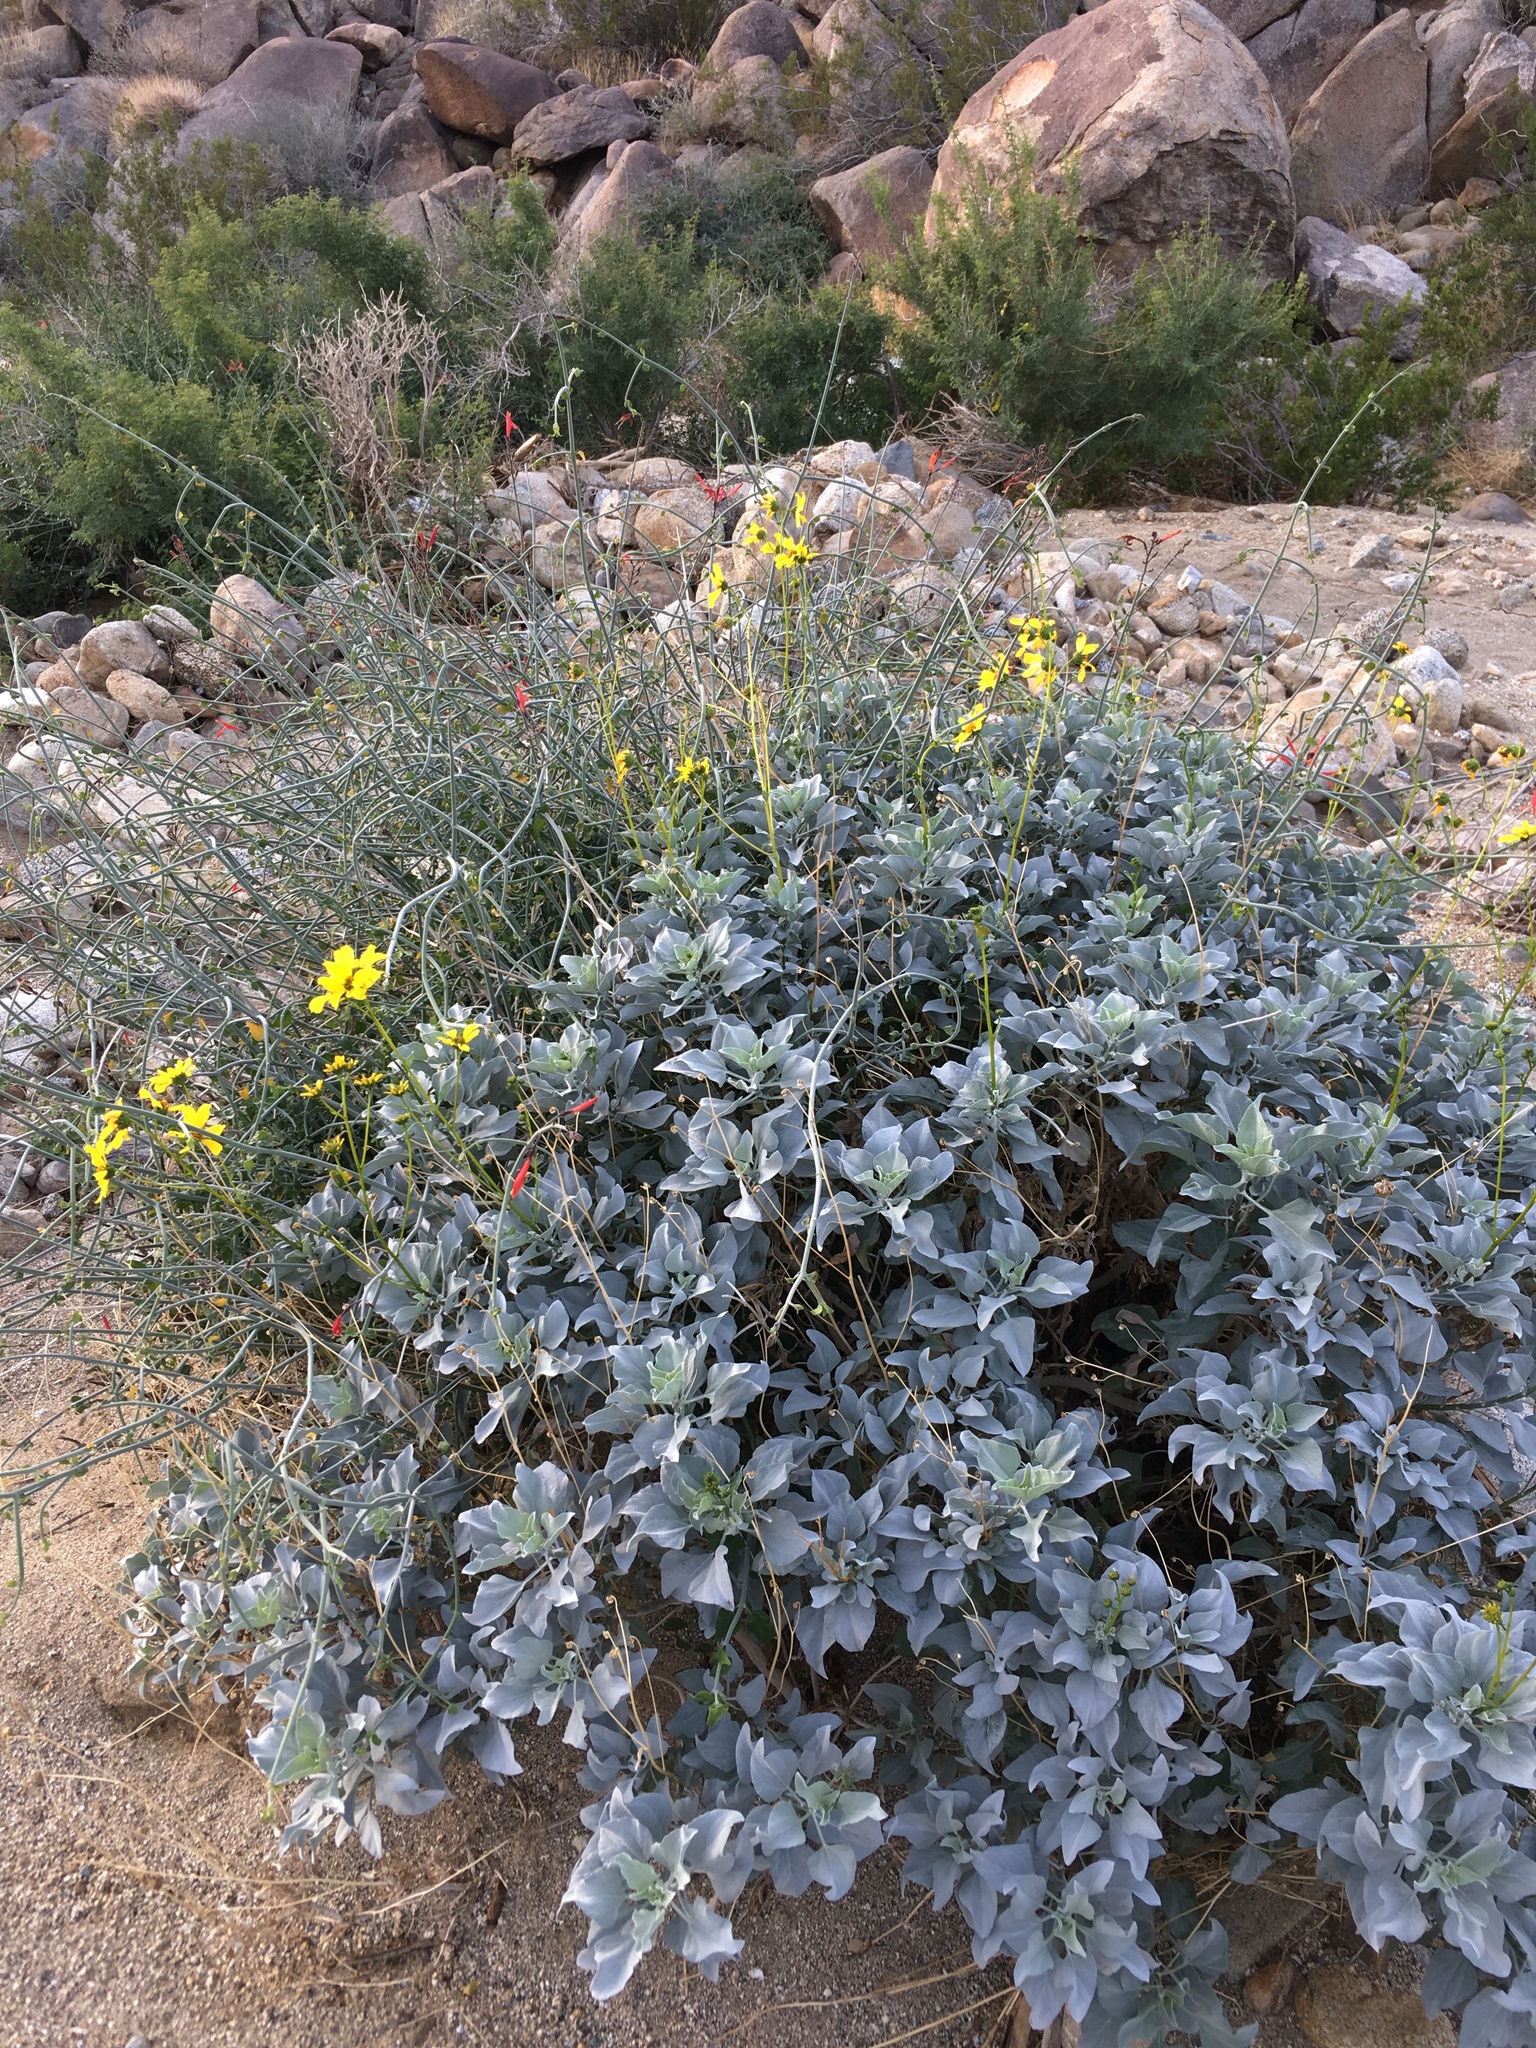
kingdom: Plantae
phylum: Tracheophyta
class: Magnoliopsida
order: Asterales
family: Asteraceae
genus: Encelia
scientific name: Encelia farinosa
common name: Brittlebush
